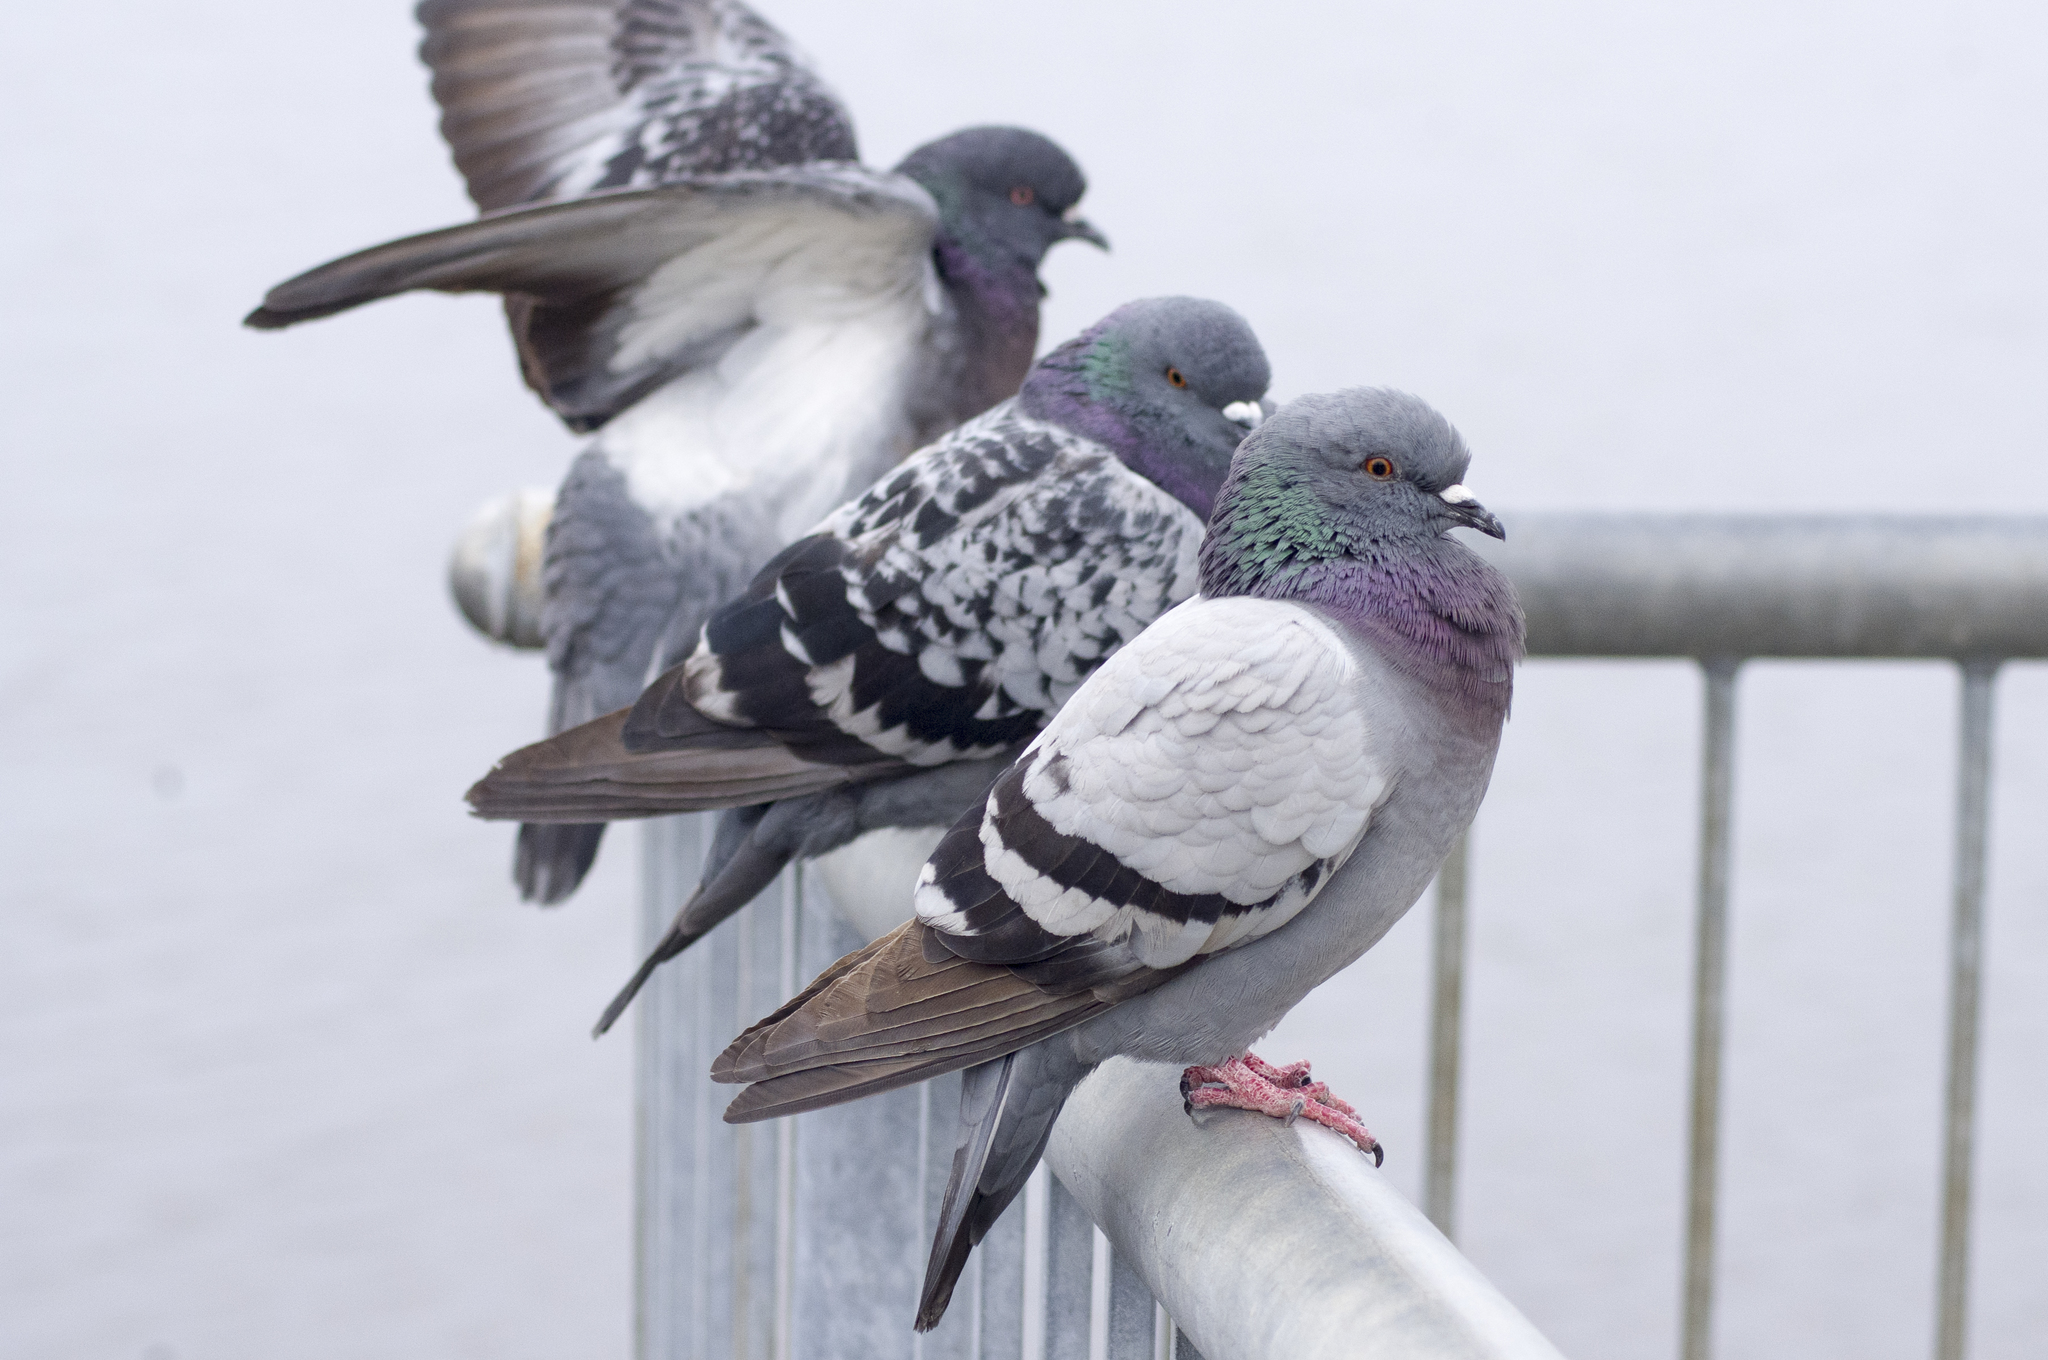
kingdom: Animalia
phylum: Chordata
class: Aves
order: Columbiformes
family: Columbidae
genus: Columba
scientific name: Columba livia
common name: Rock pigeon
